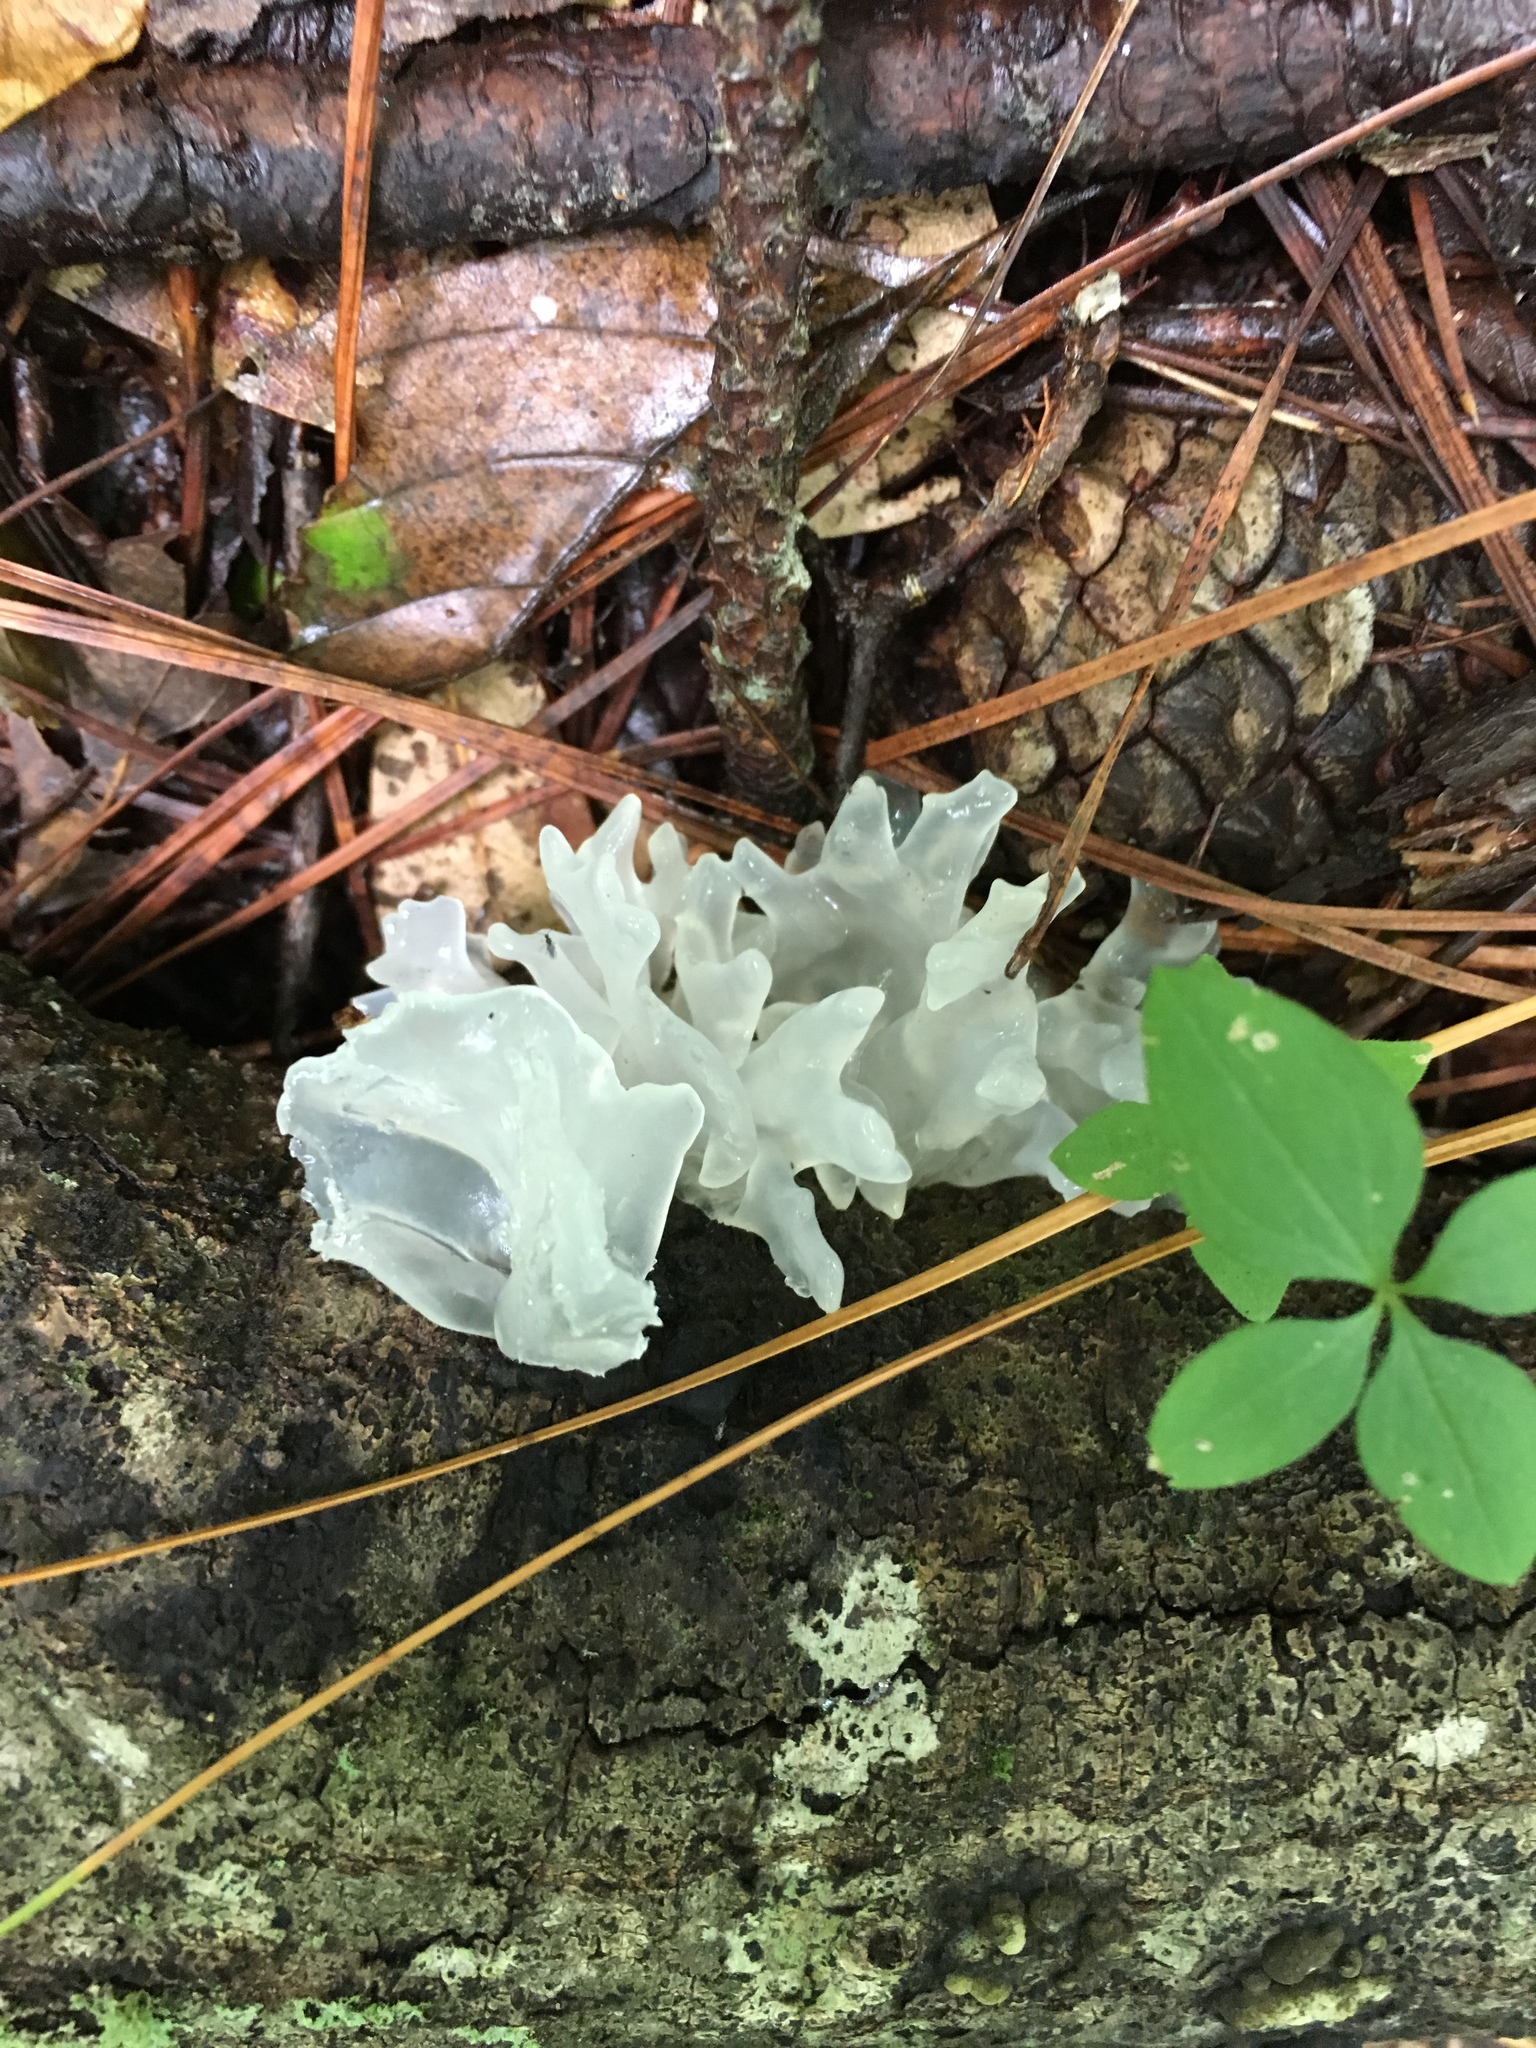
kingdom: Fungi
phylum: Basidiomycota
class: Tremellomycetes
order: Tremellales
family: Tremellaceae
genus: Tremella
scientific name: Tremella fuciformis
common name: Snow fungus
